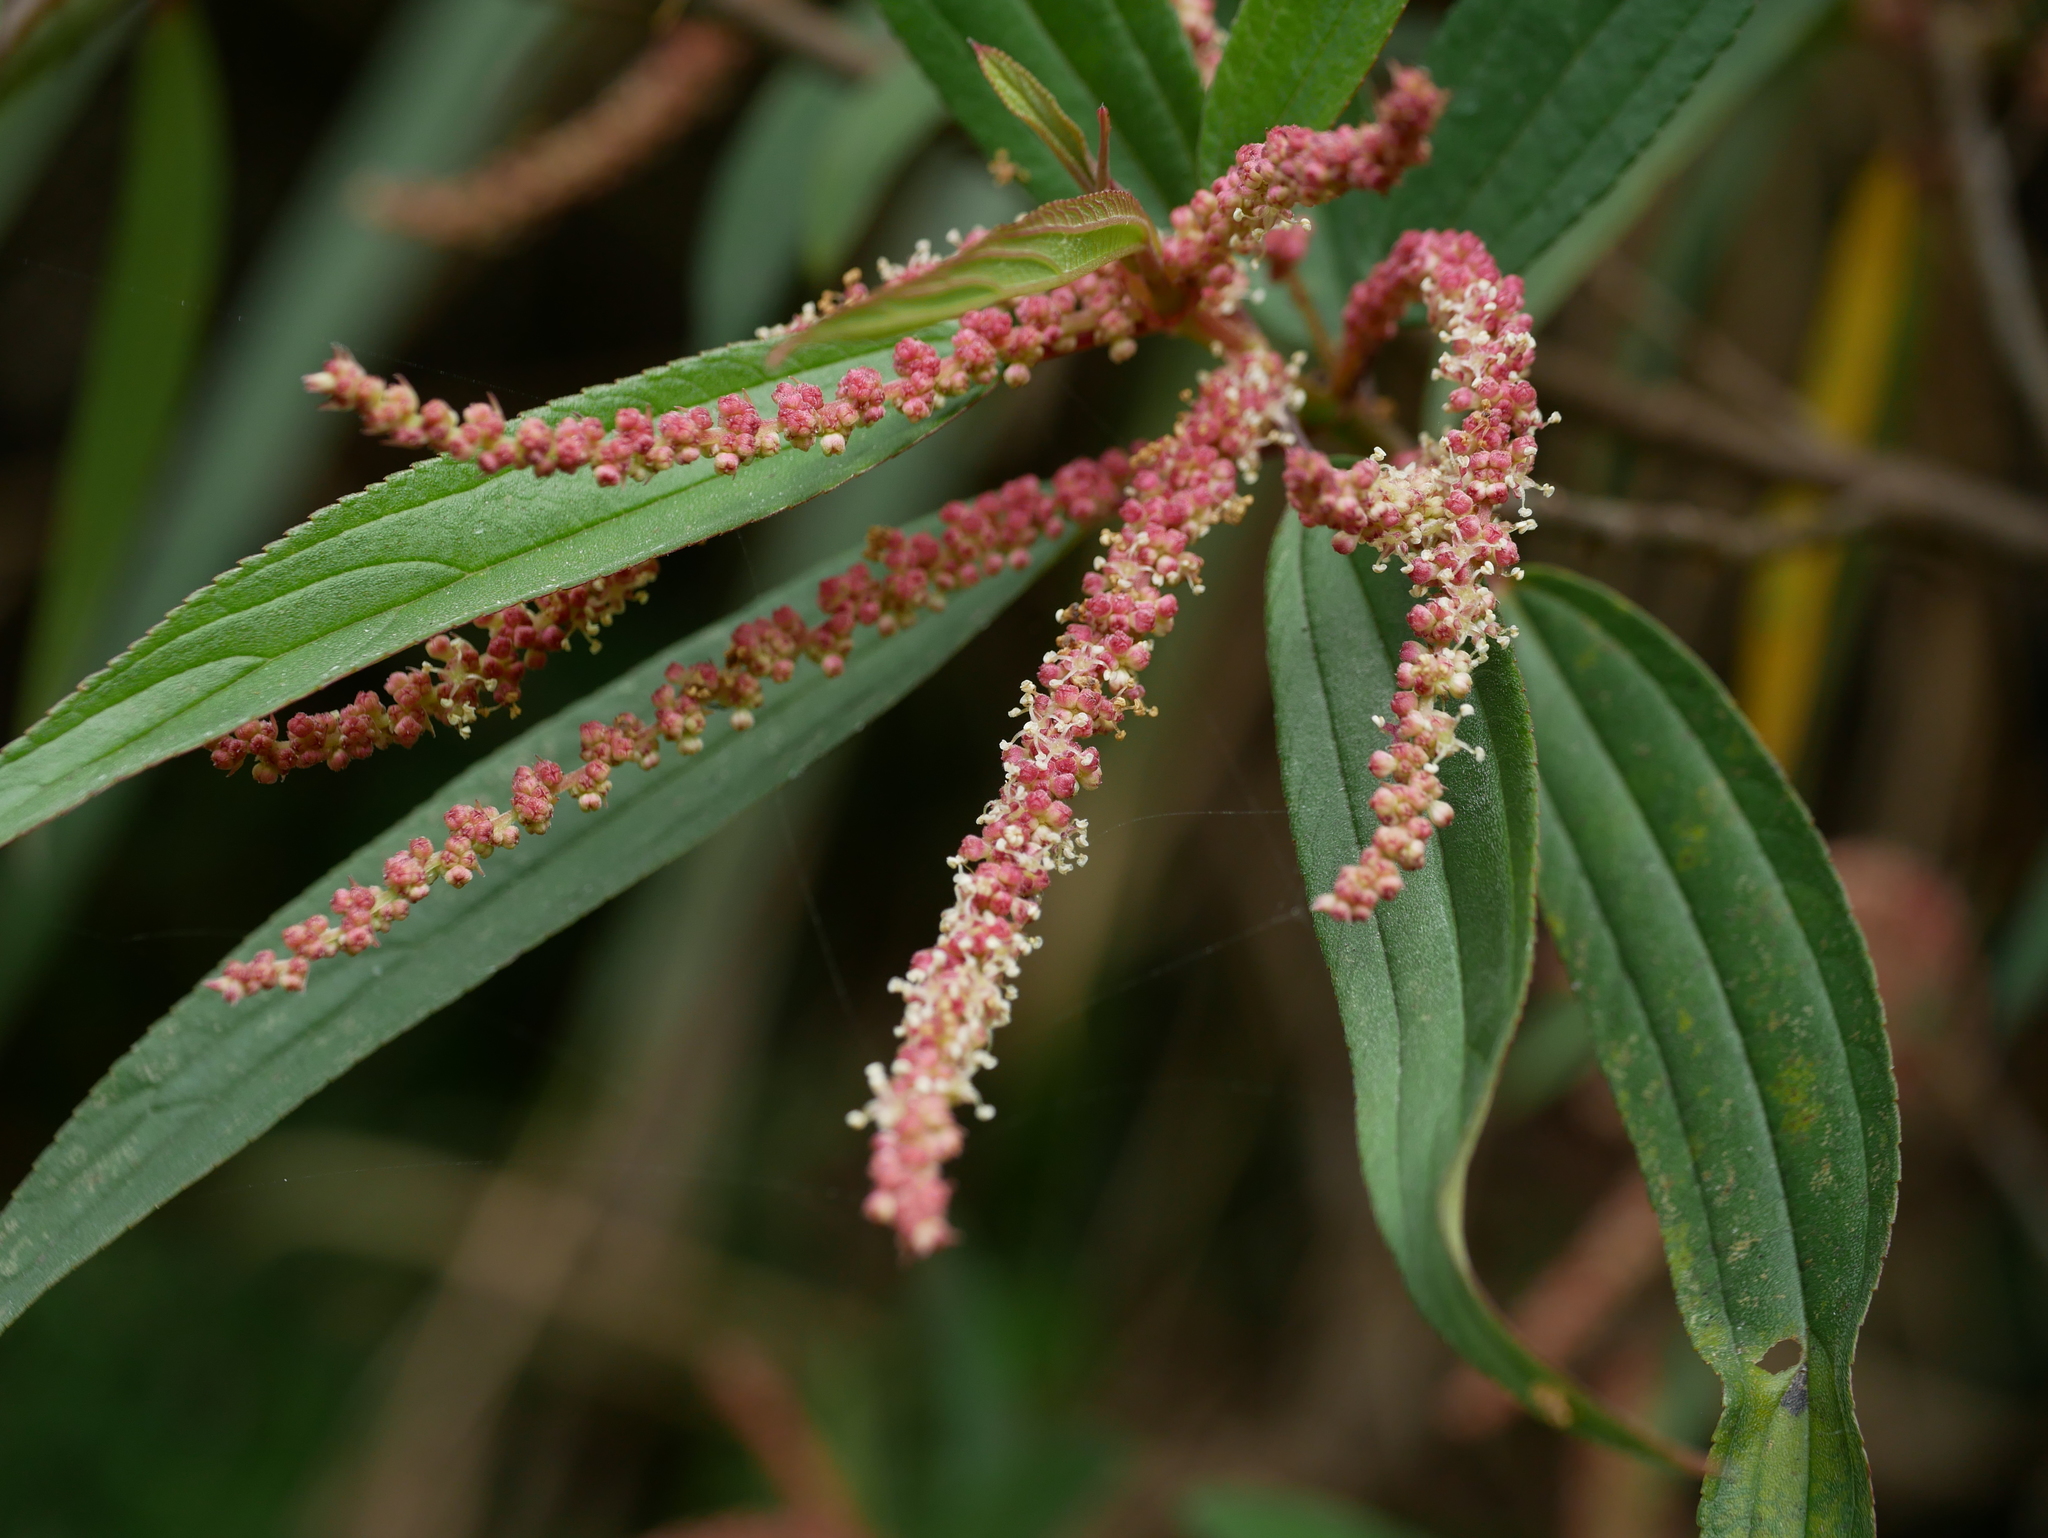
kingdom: Plantae
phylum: Tracheophyta
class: Magnoliopsida
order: Rosales
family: Urticaceae
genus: Boehmeria
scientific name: Boehmeria densiflora
